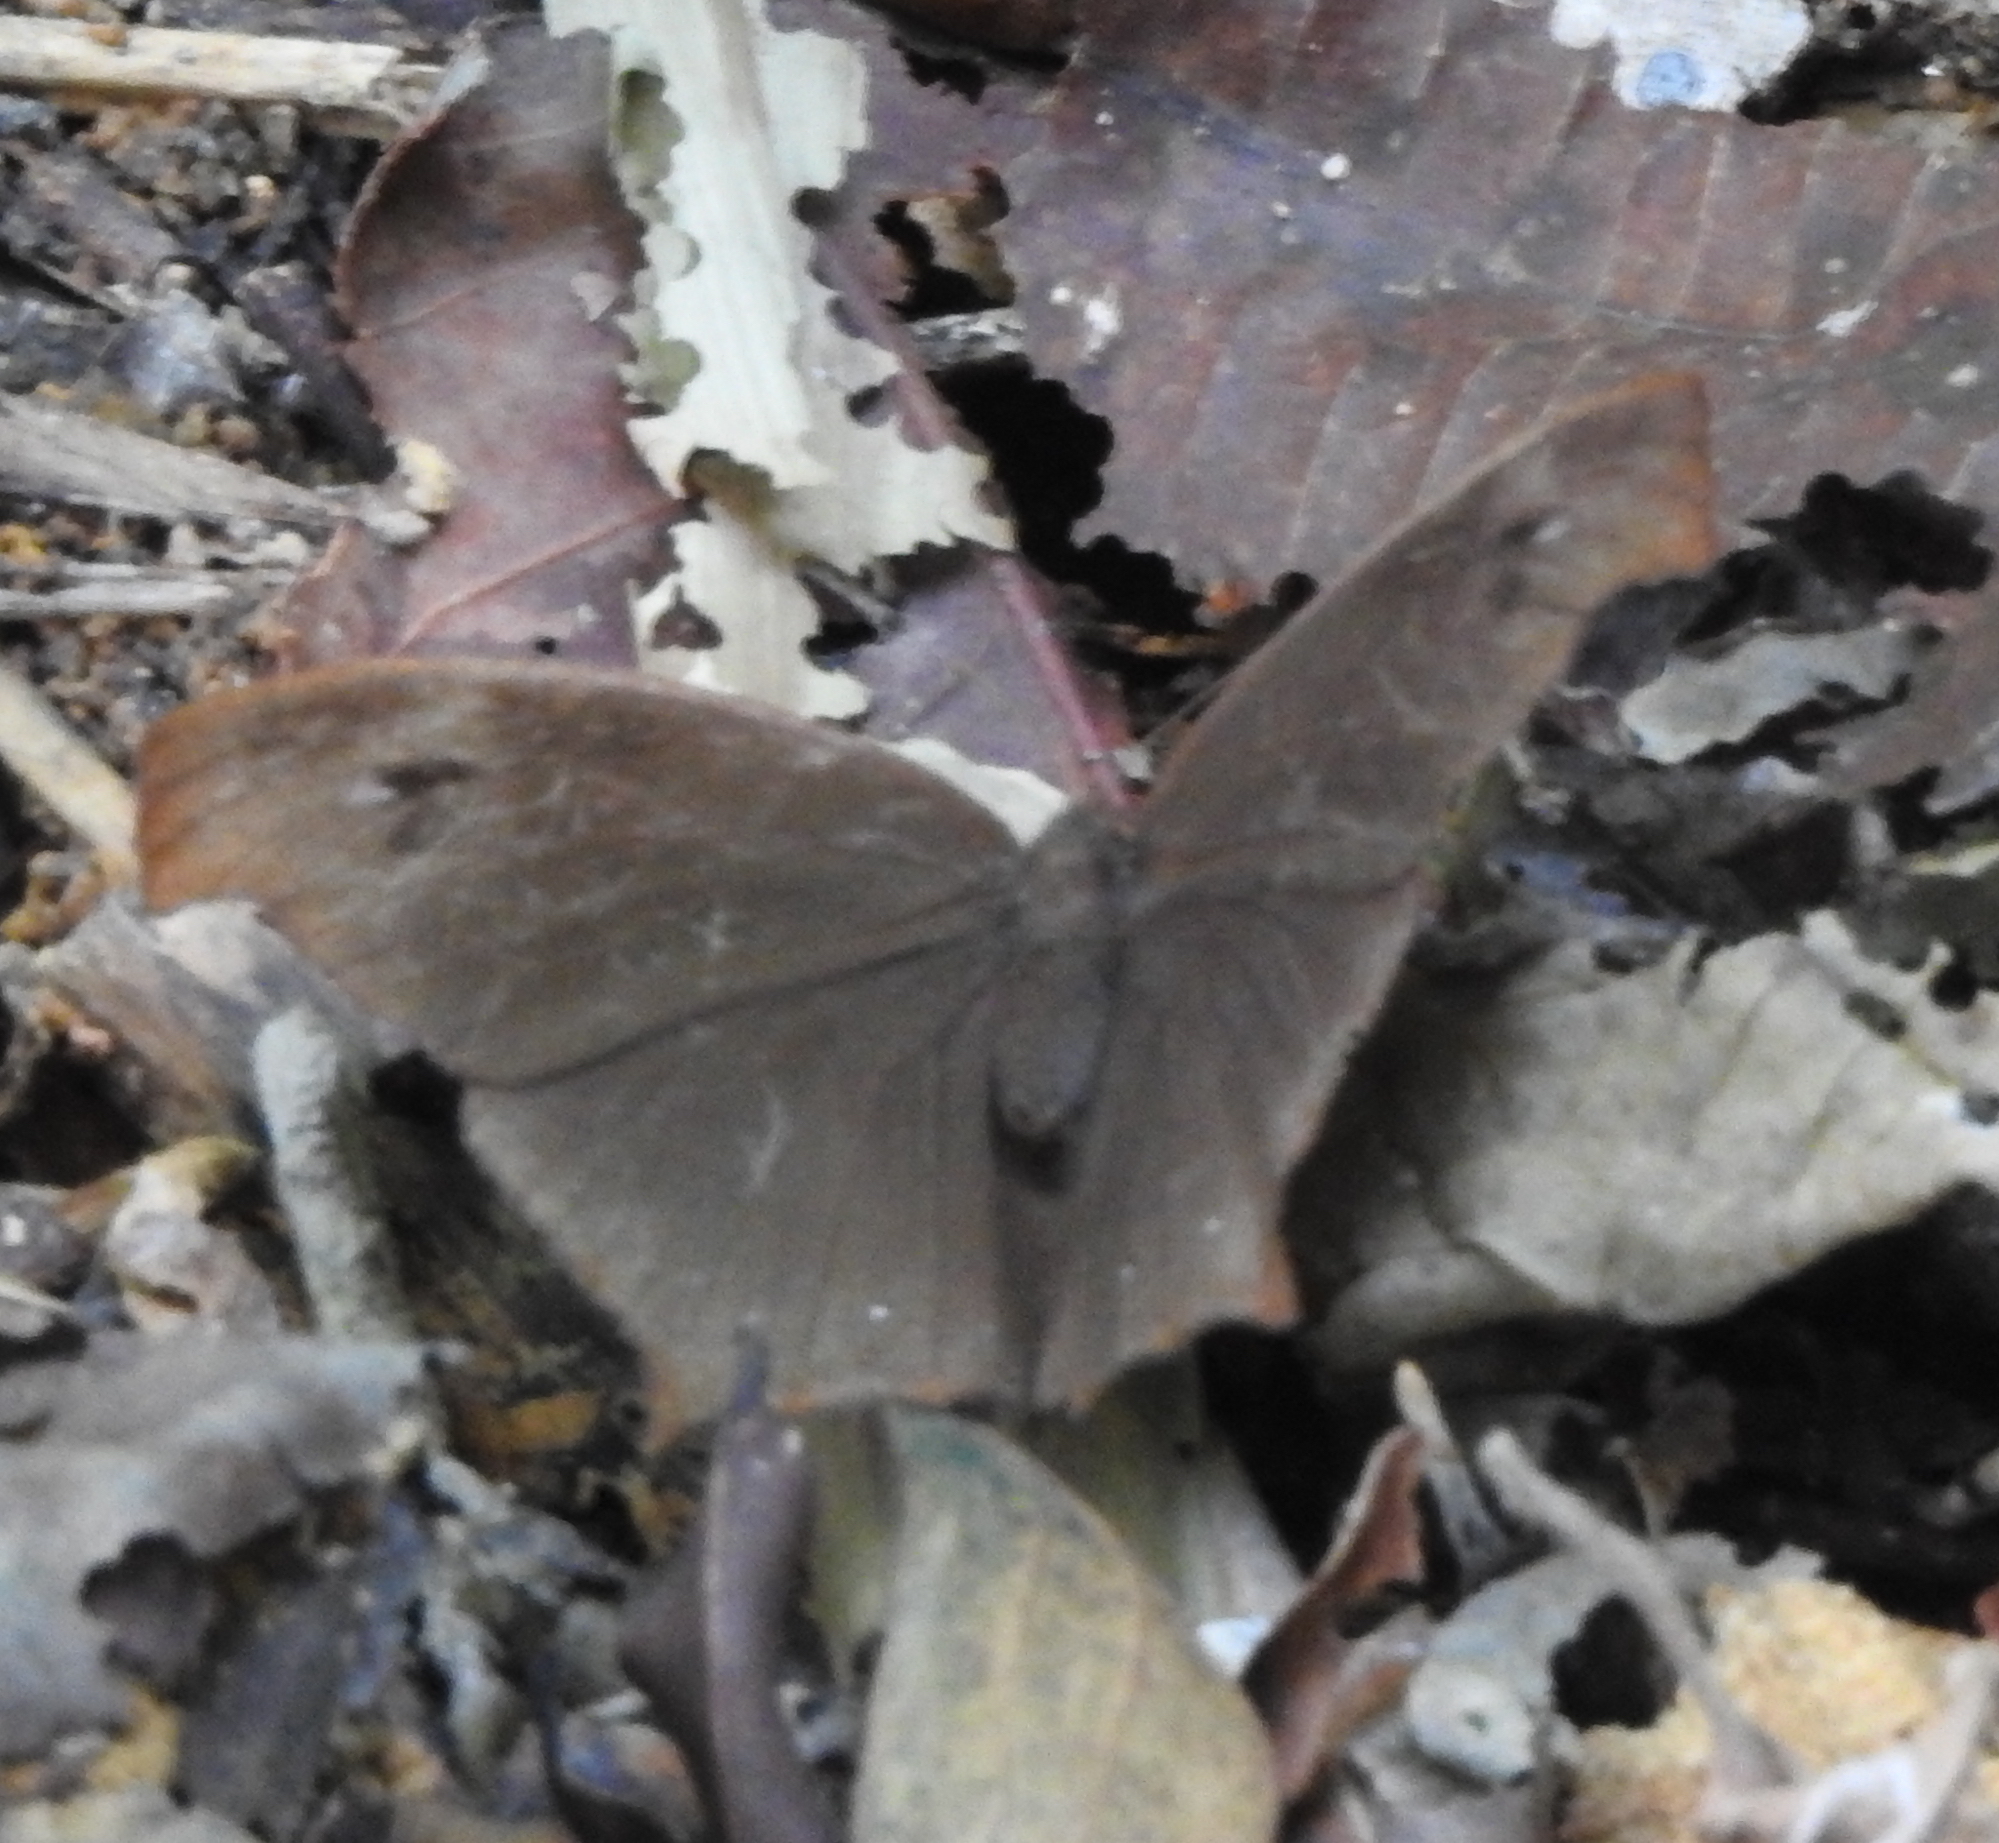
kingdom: Animalia
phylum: Arthropoda
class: Insecta
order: Lepidoptera
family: Nymphalidae
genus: Melanitis
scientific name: Melanitis phedima
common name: Dark evening brown
